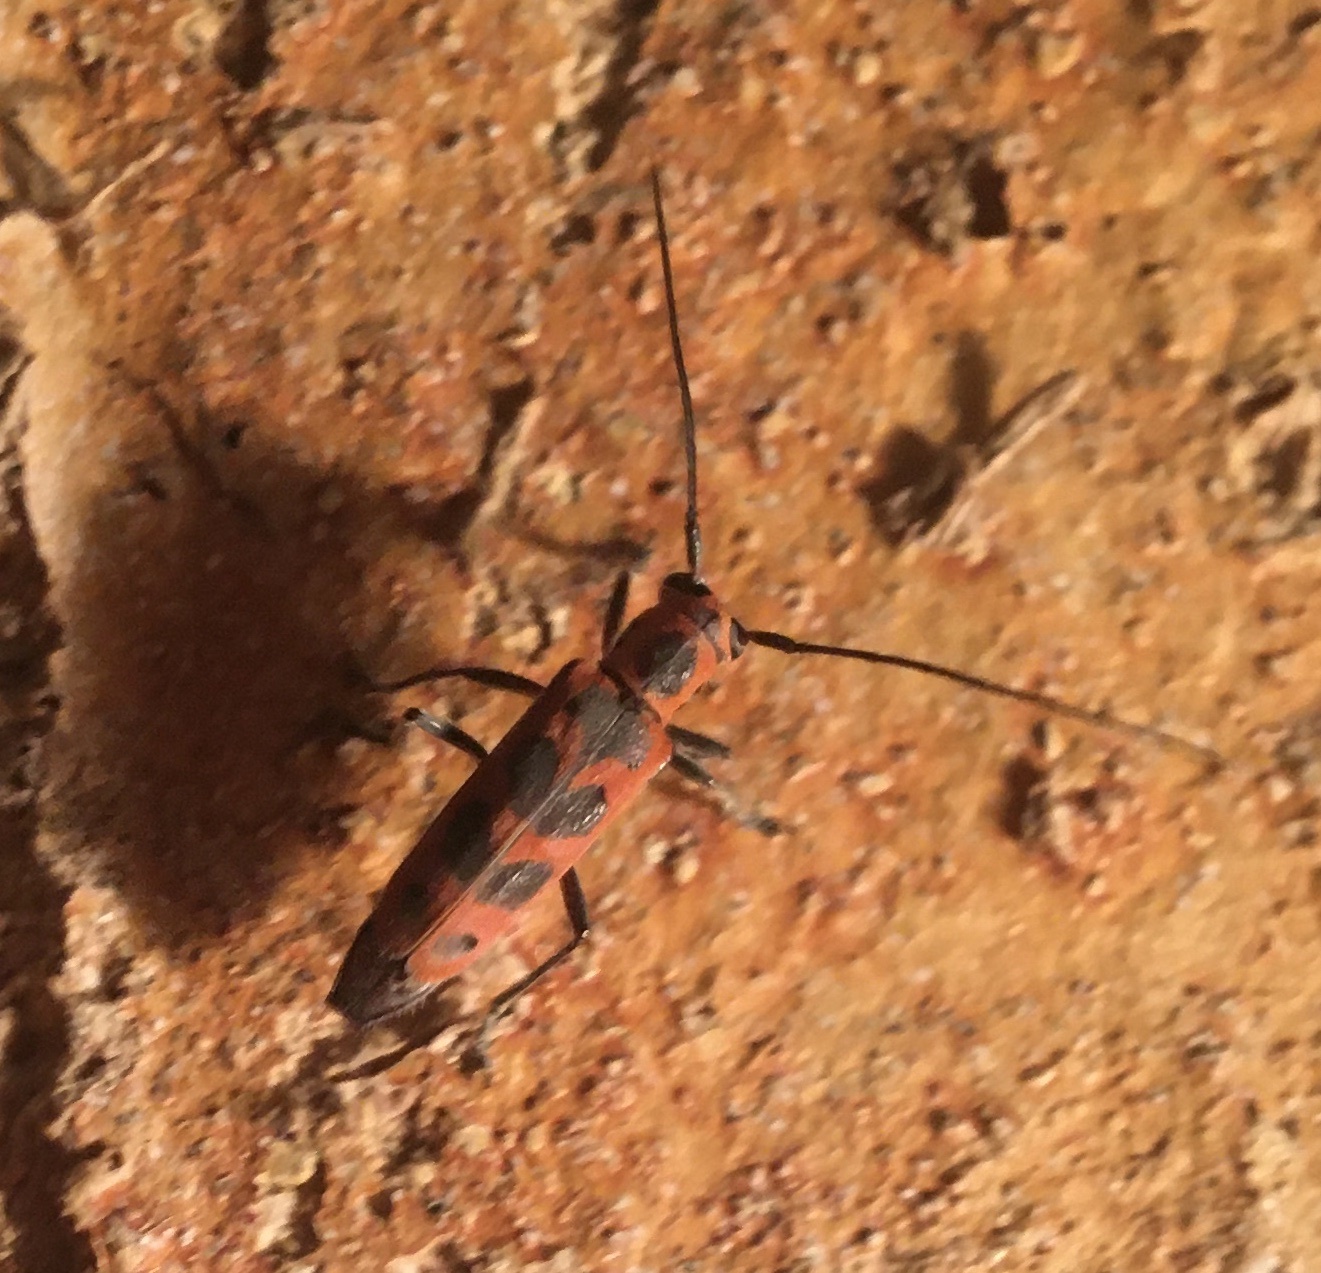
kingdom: Animalia
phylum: Arthropoda
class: Insecta
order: Coleoptera
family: Cerambycidae
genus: Saperda
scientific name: Saperda tridentata
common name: Elm borer
